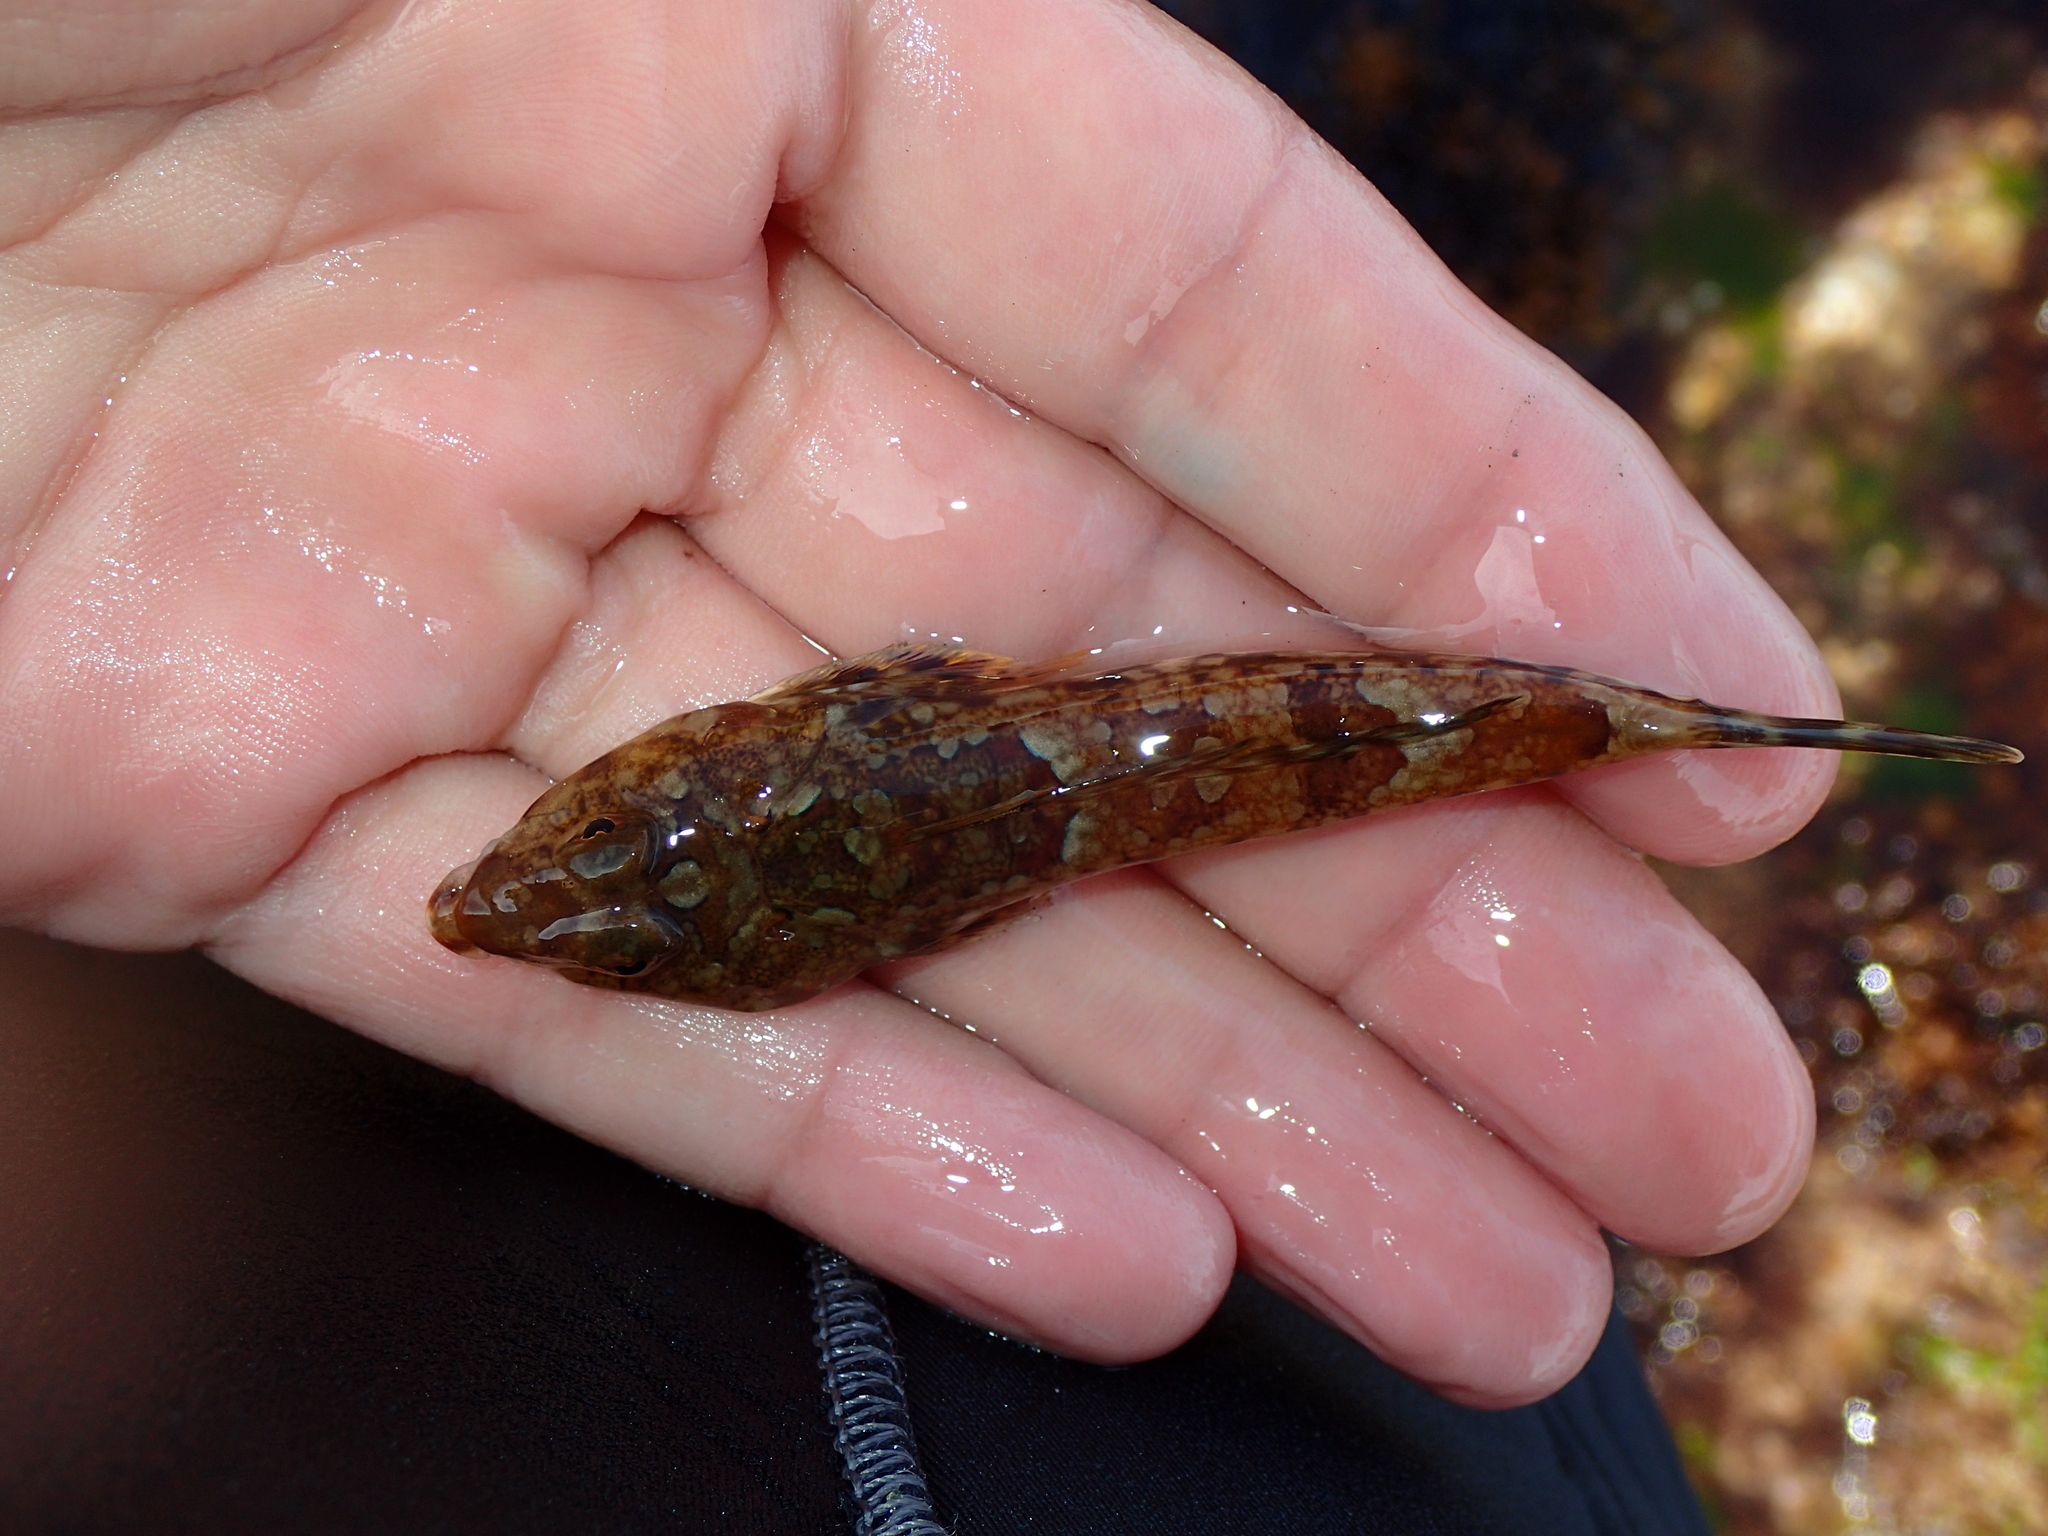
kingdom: Animalia
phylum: Chordata
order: Perciformes
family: Callionymidae
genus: Callionymus
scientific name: Callionymus lyra
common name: Dragonet
